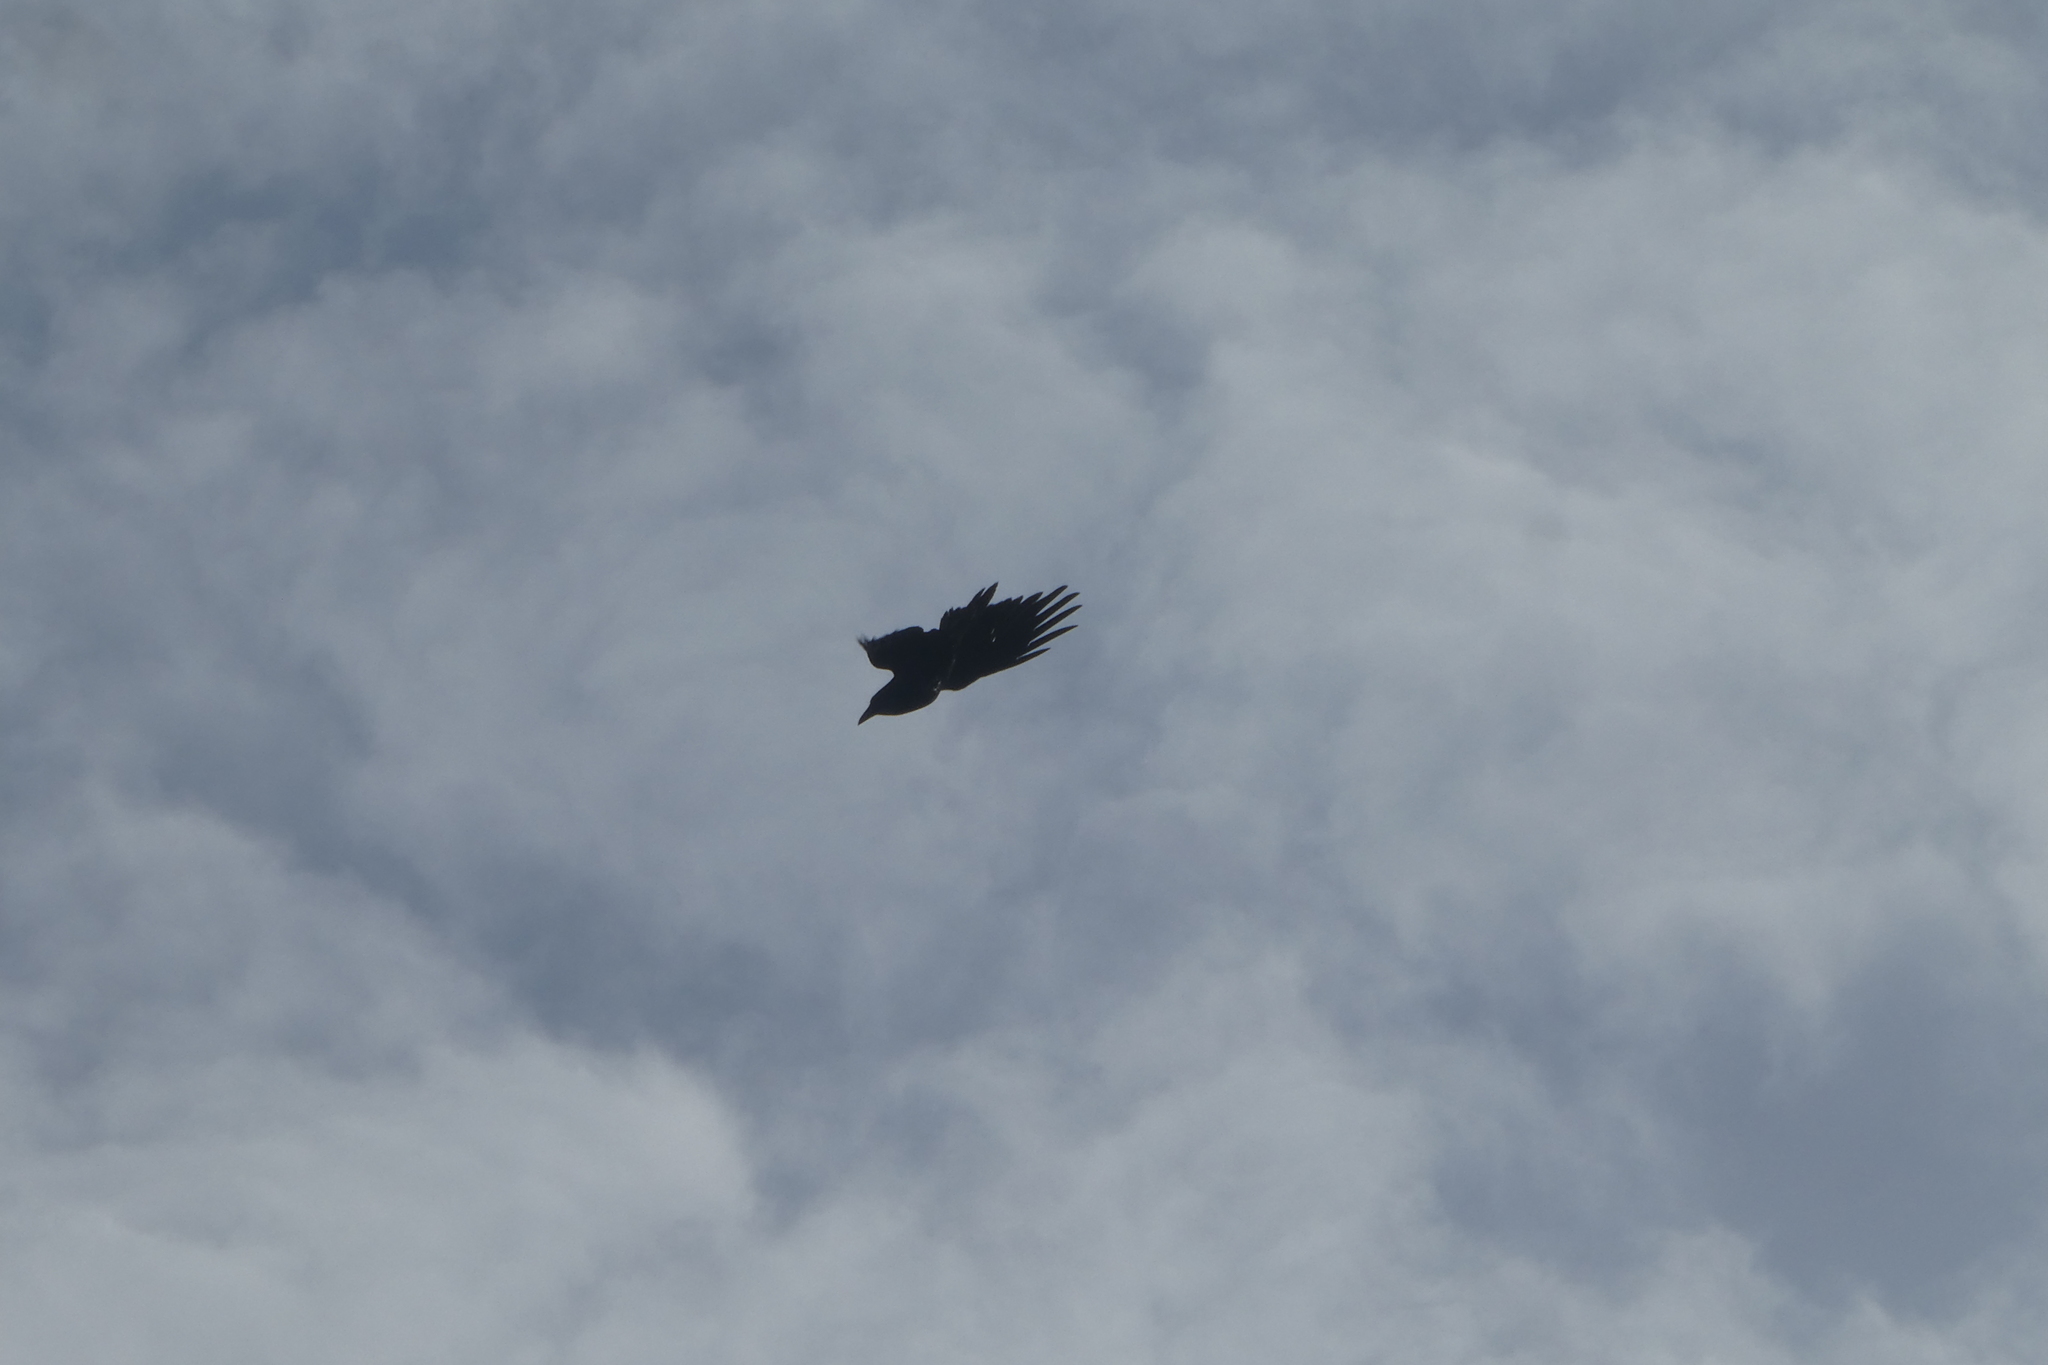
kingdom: Animalia
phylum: Chordata
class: Aves
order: Passeriformes
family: Corvidae
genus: Corvus
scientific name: Corvus corax
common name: Common raven
